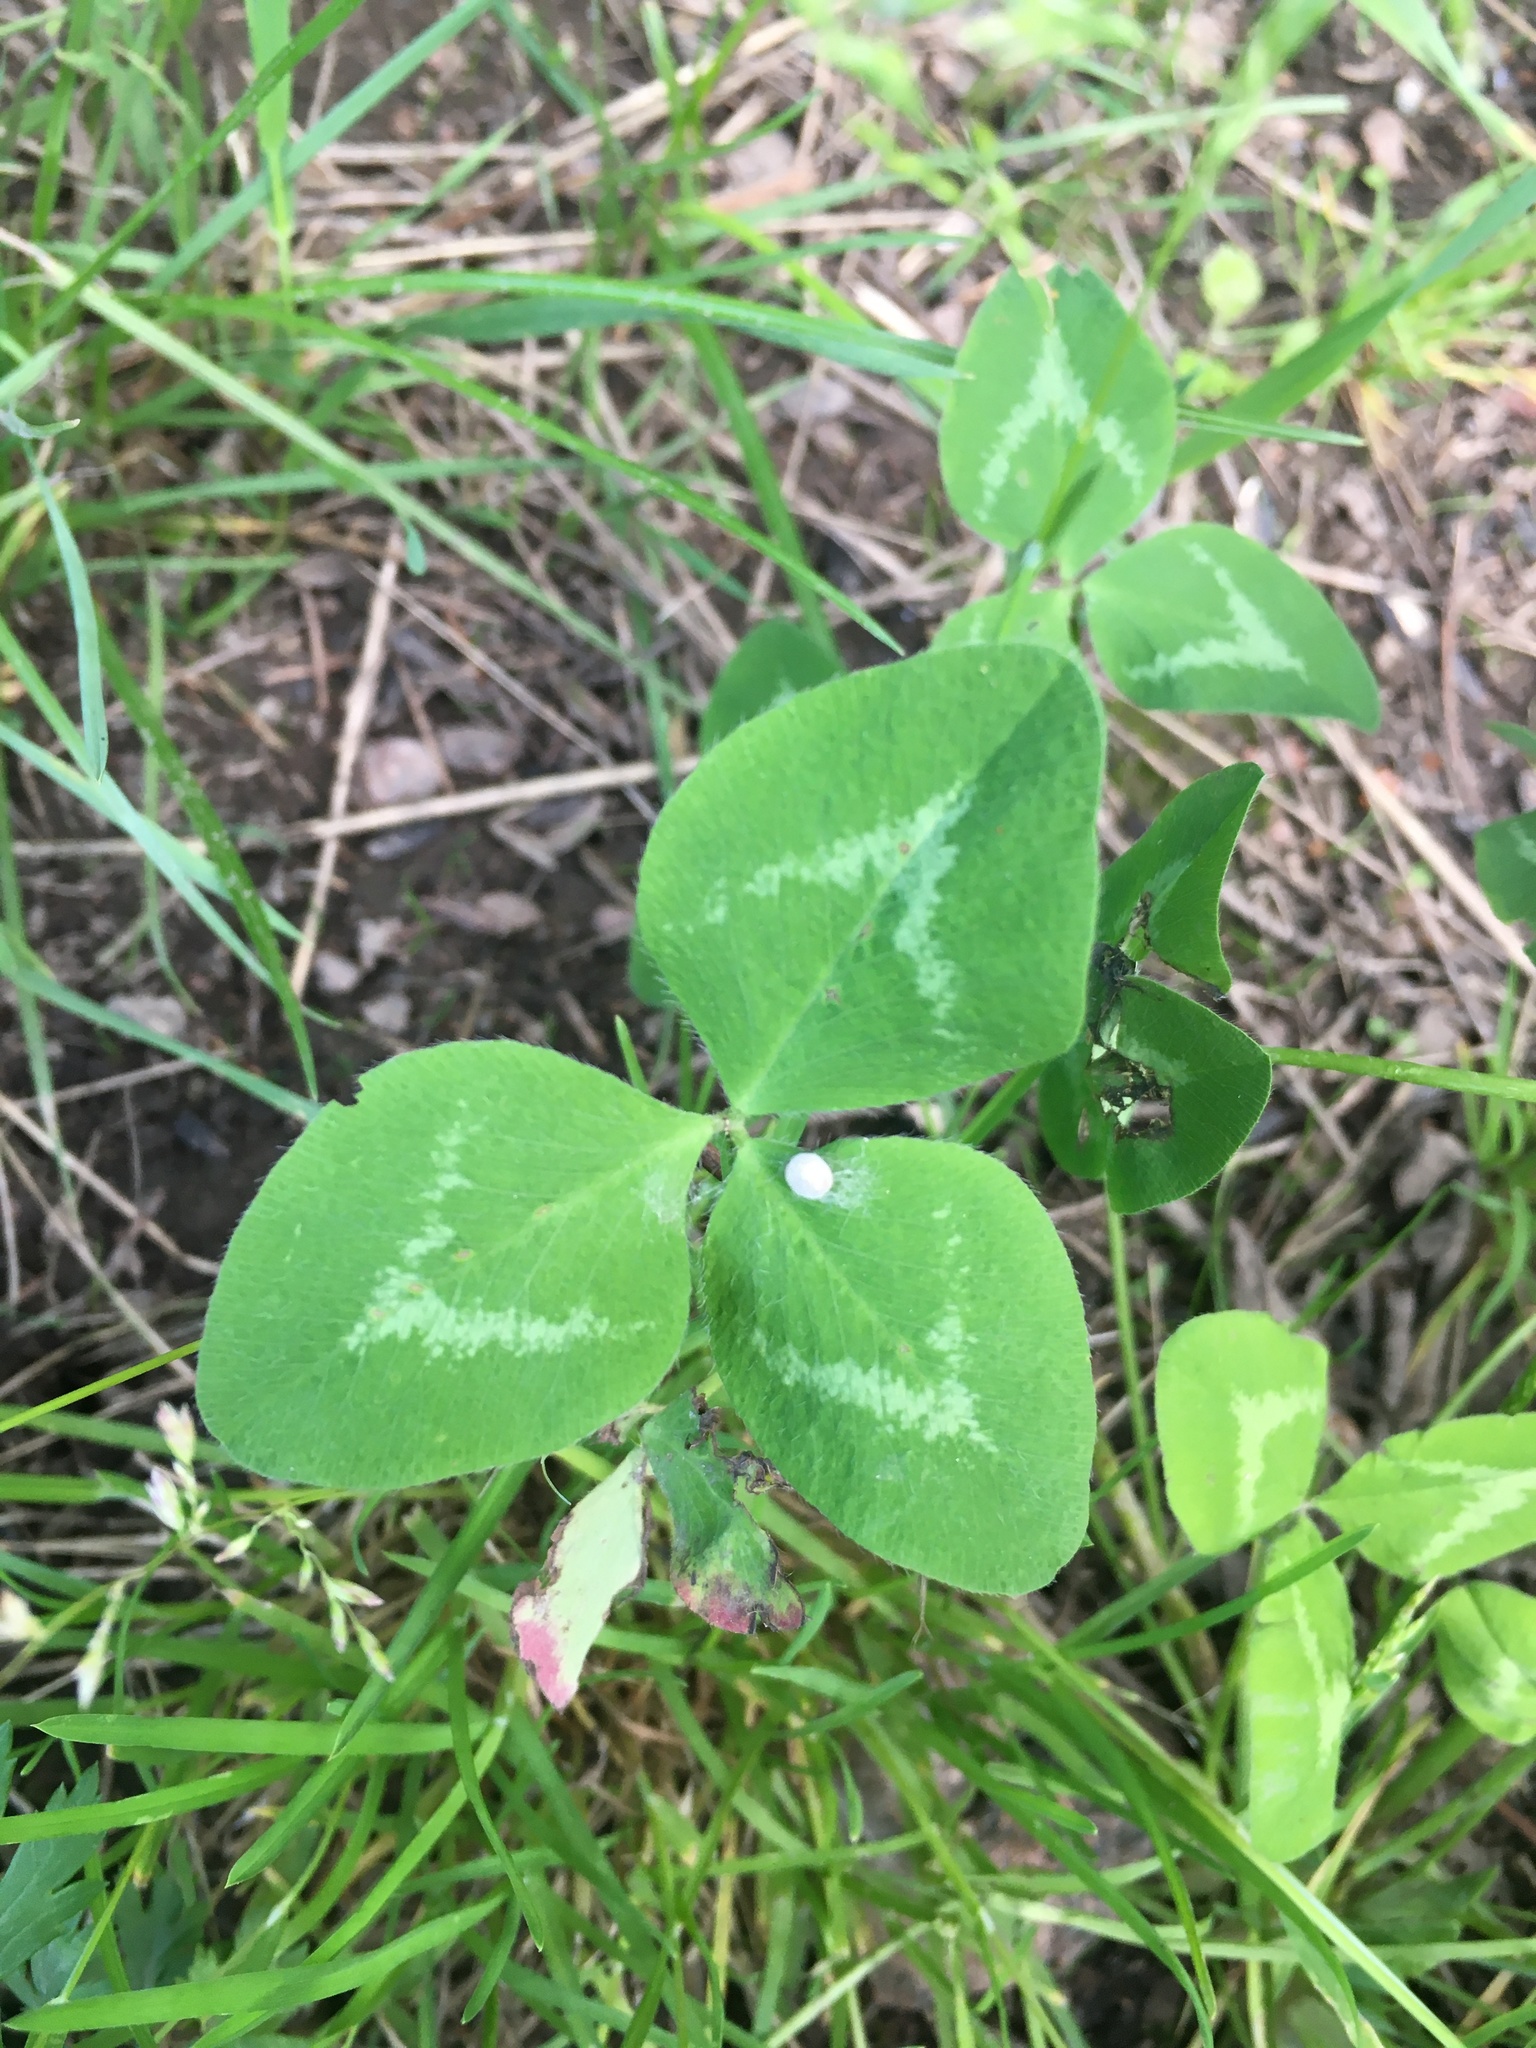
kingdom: Plantae
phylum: Tracheophyta
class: Magnoliopsida
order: Fabales
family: Fabaceae
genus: Trifolium
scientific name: Trifolium pratense
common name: Red clover
